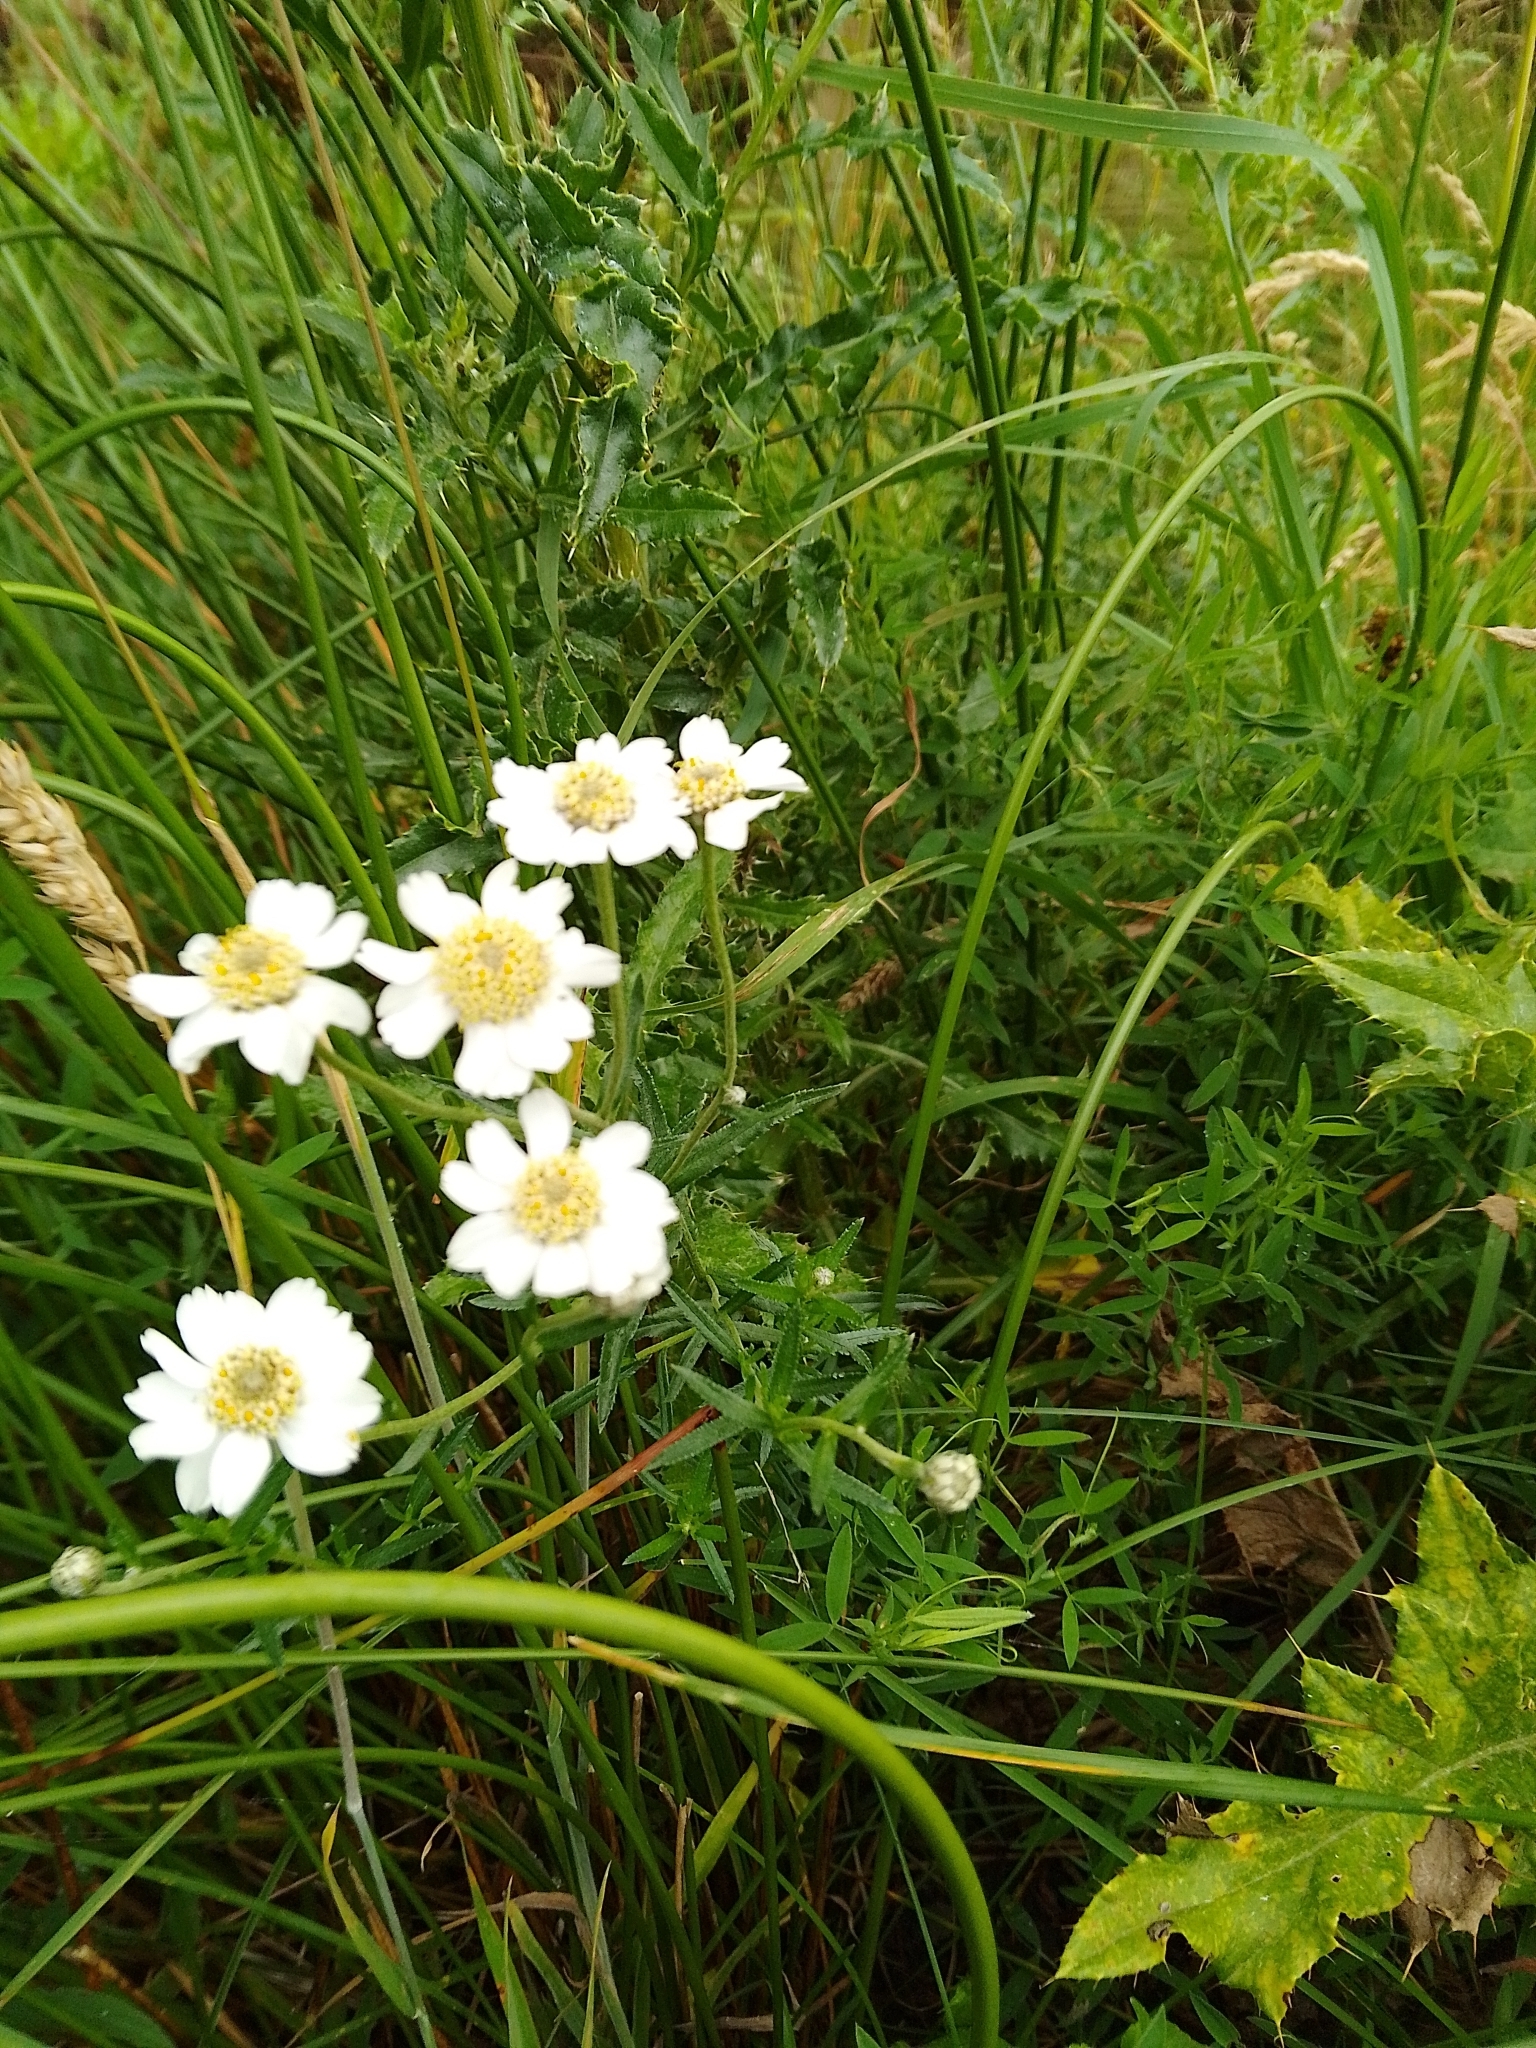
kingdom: Plantae
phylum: Tracheophyta
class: Magnoliopsida
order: Asterales
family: Asteraceae
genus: Achillea
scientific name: Achillea ptarmica
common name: Sneezeweed
